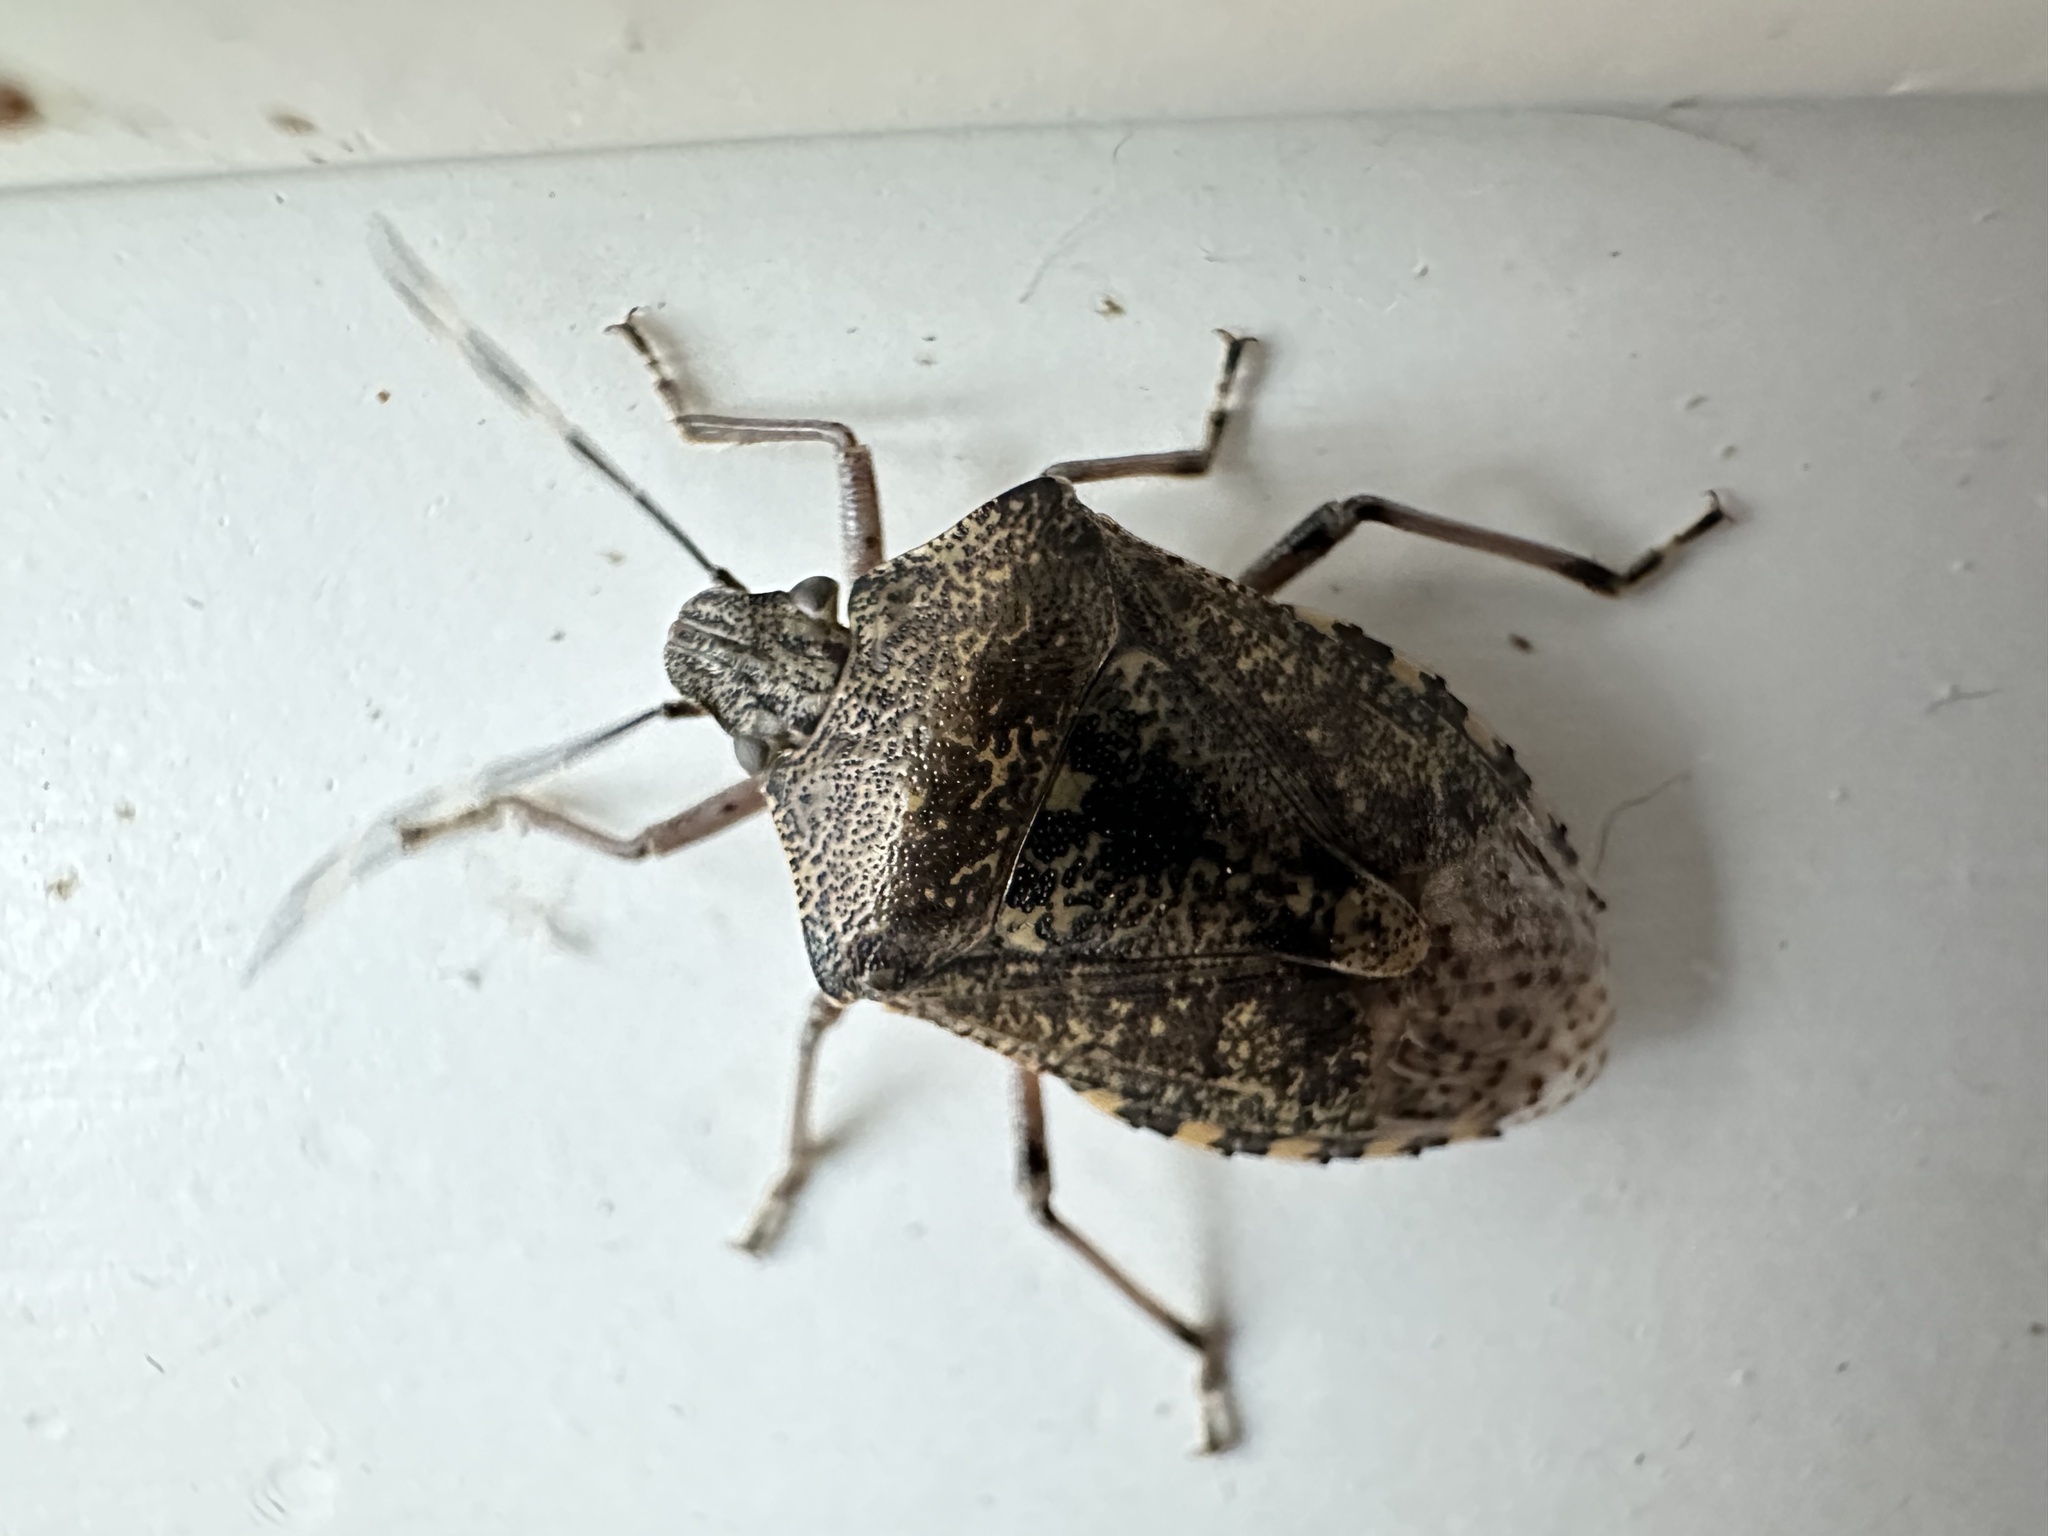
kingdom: Animalia
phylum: Arthropoda
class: Insecta
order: Hemiptera
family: Pentatomidae
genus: Rhaphigaster
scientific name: Rhaphigaster nebulosa
